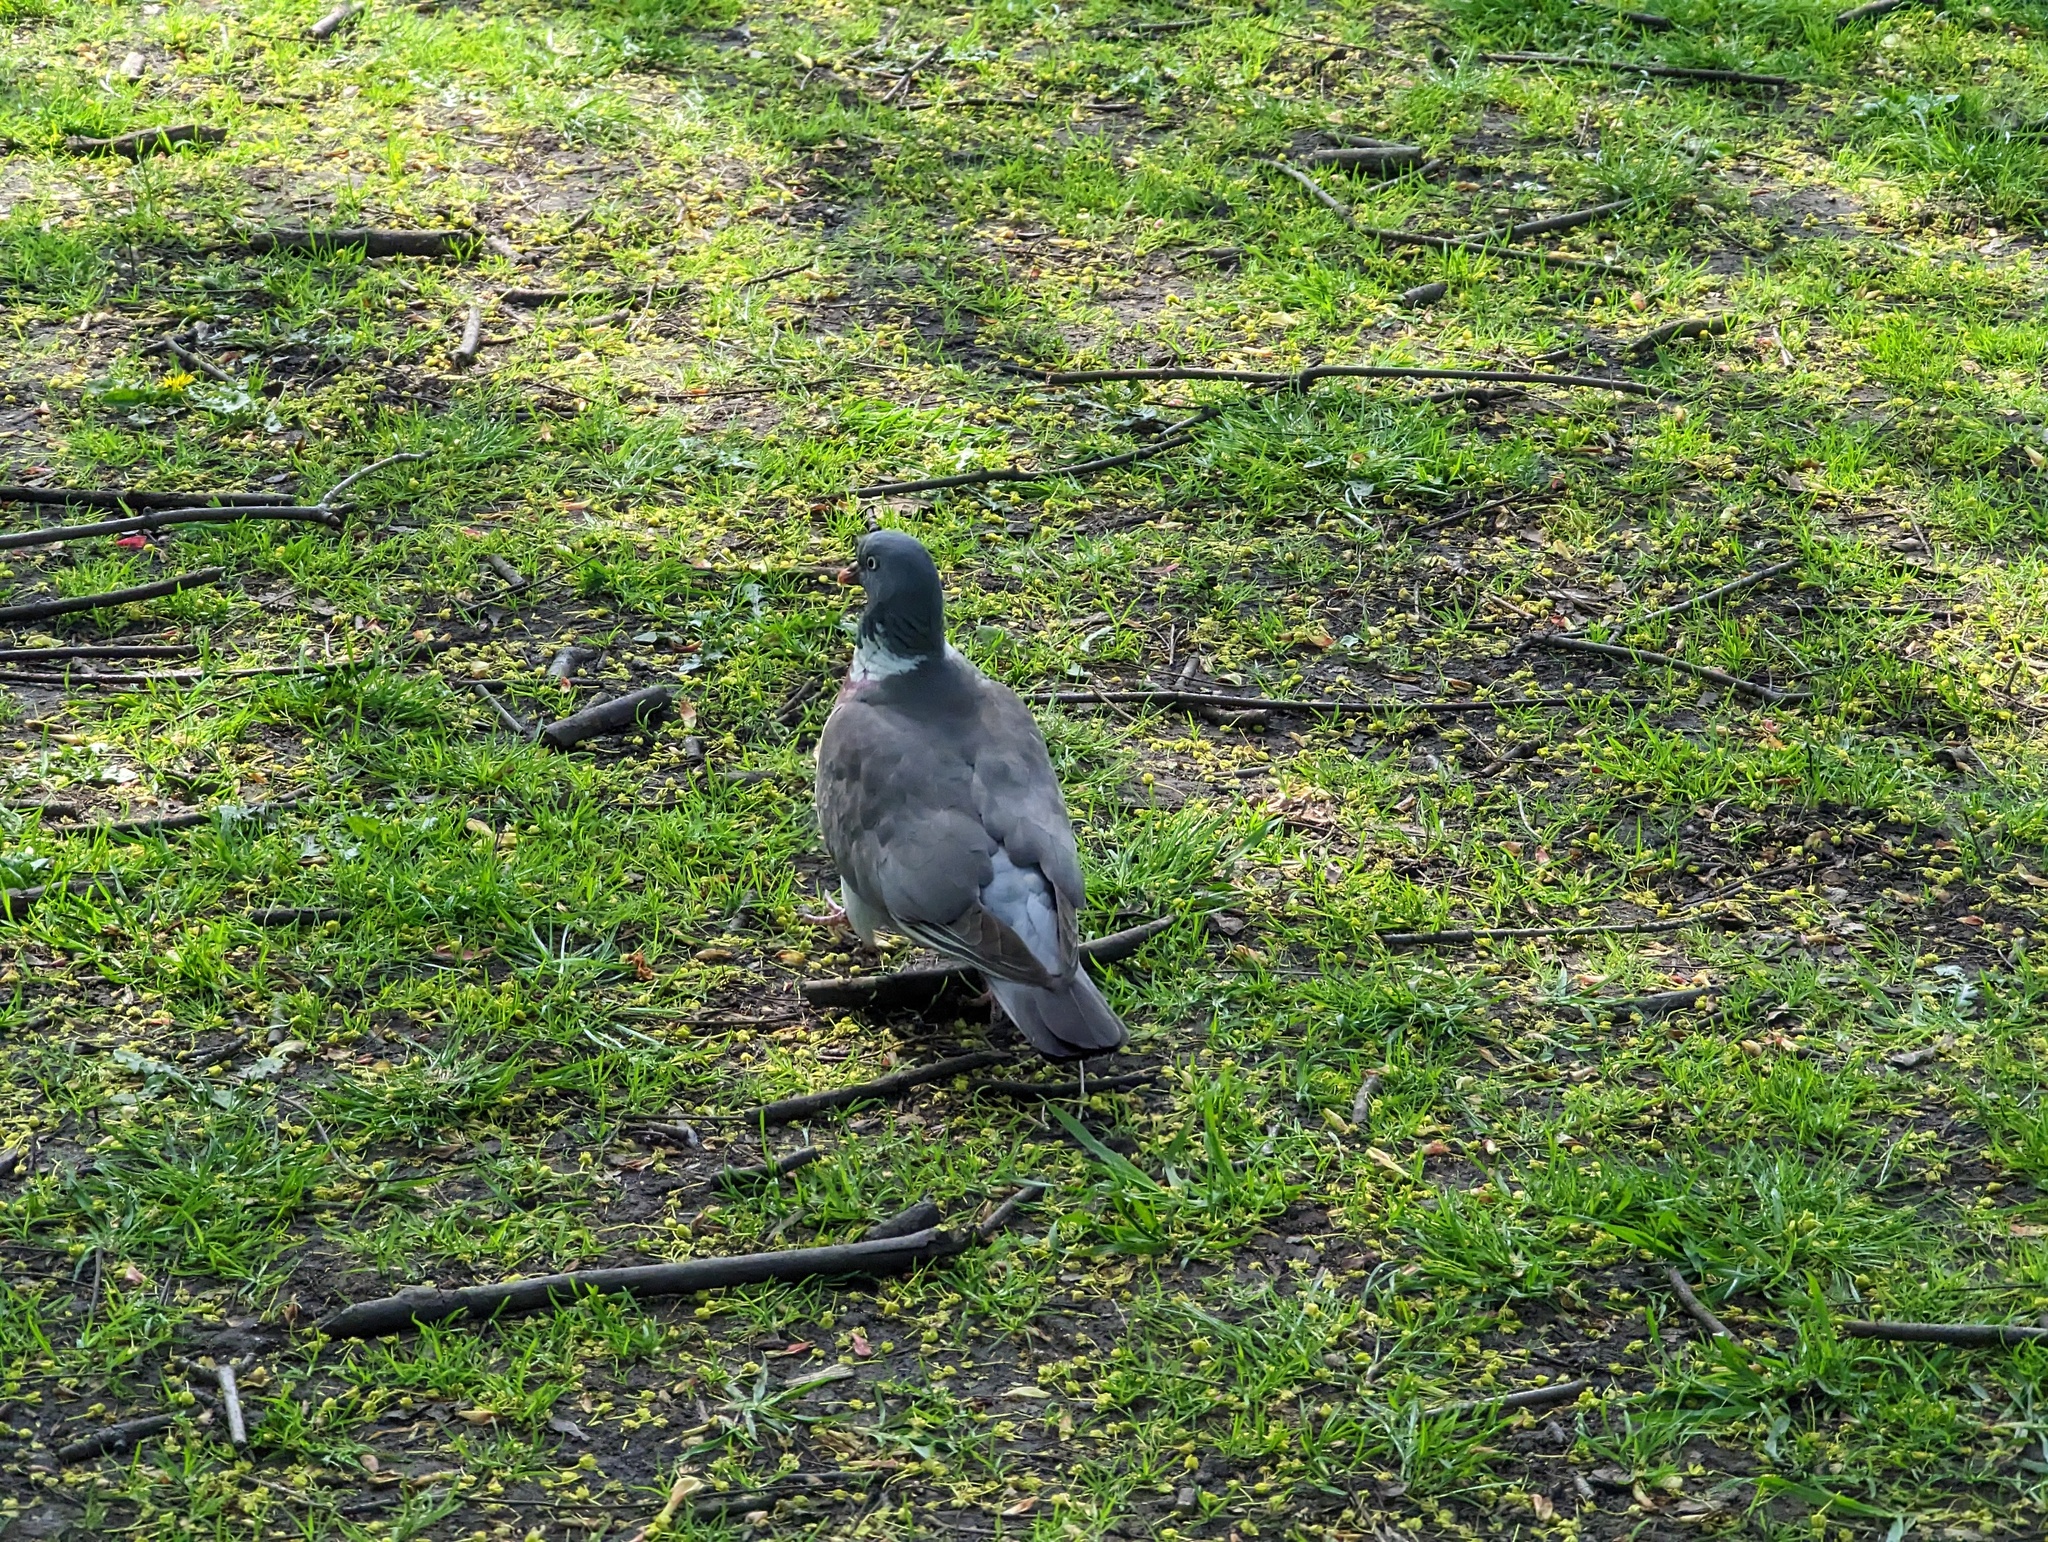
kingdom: Animalia
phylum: Chordata
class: Aves
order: Columbiformes
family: Columbidae
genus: Columba
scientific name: Columba palumbus
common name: Common wood pigeon
